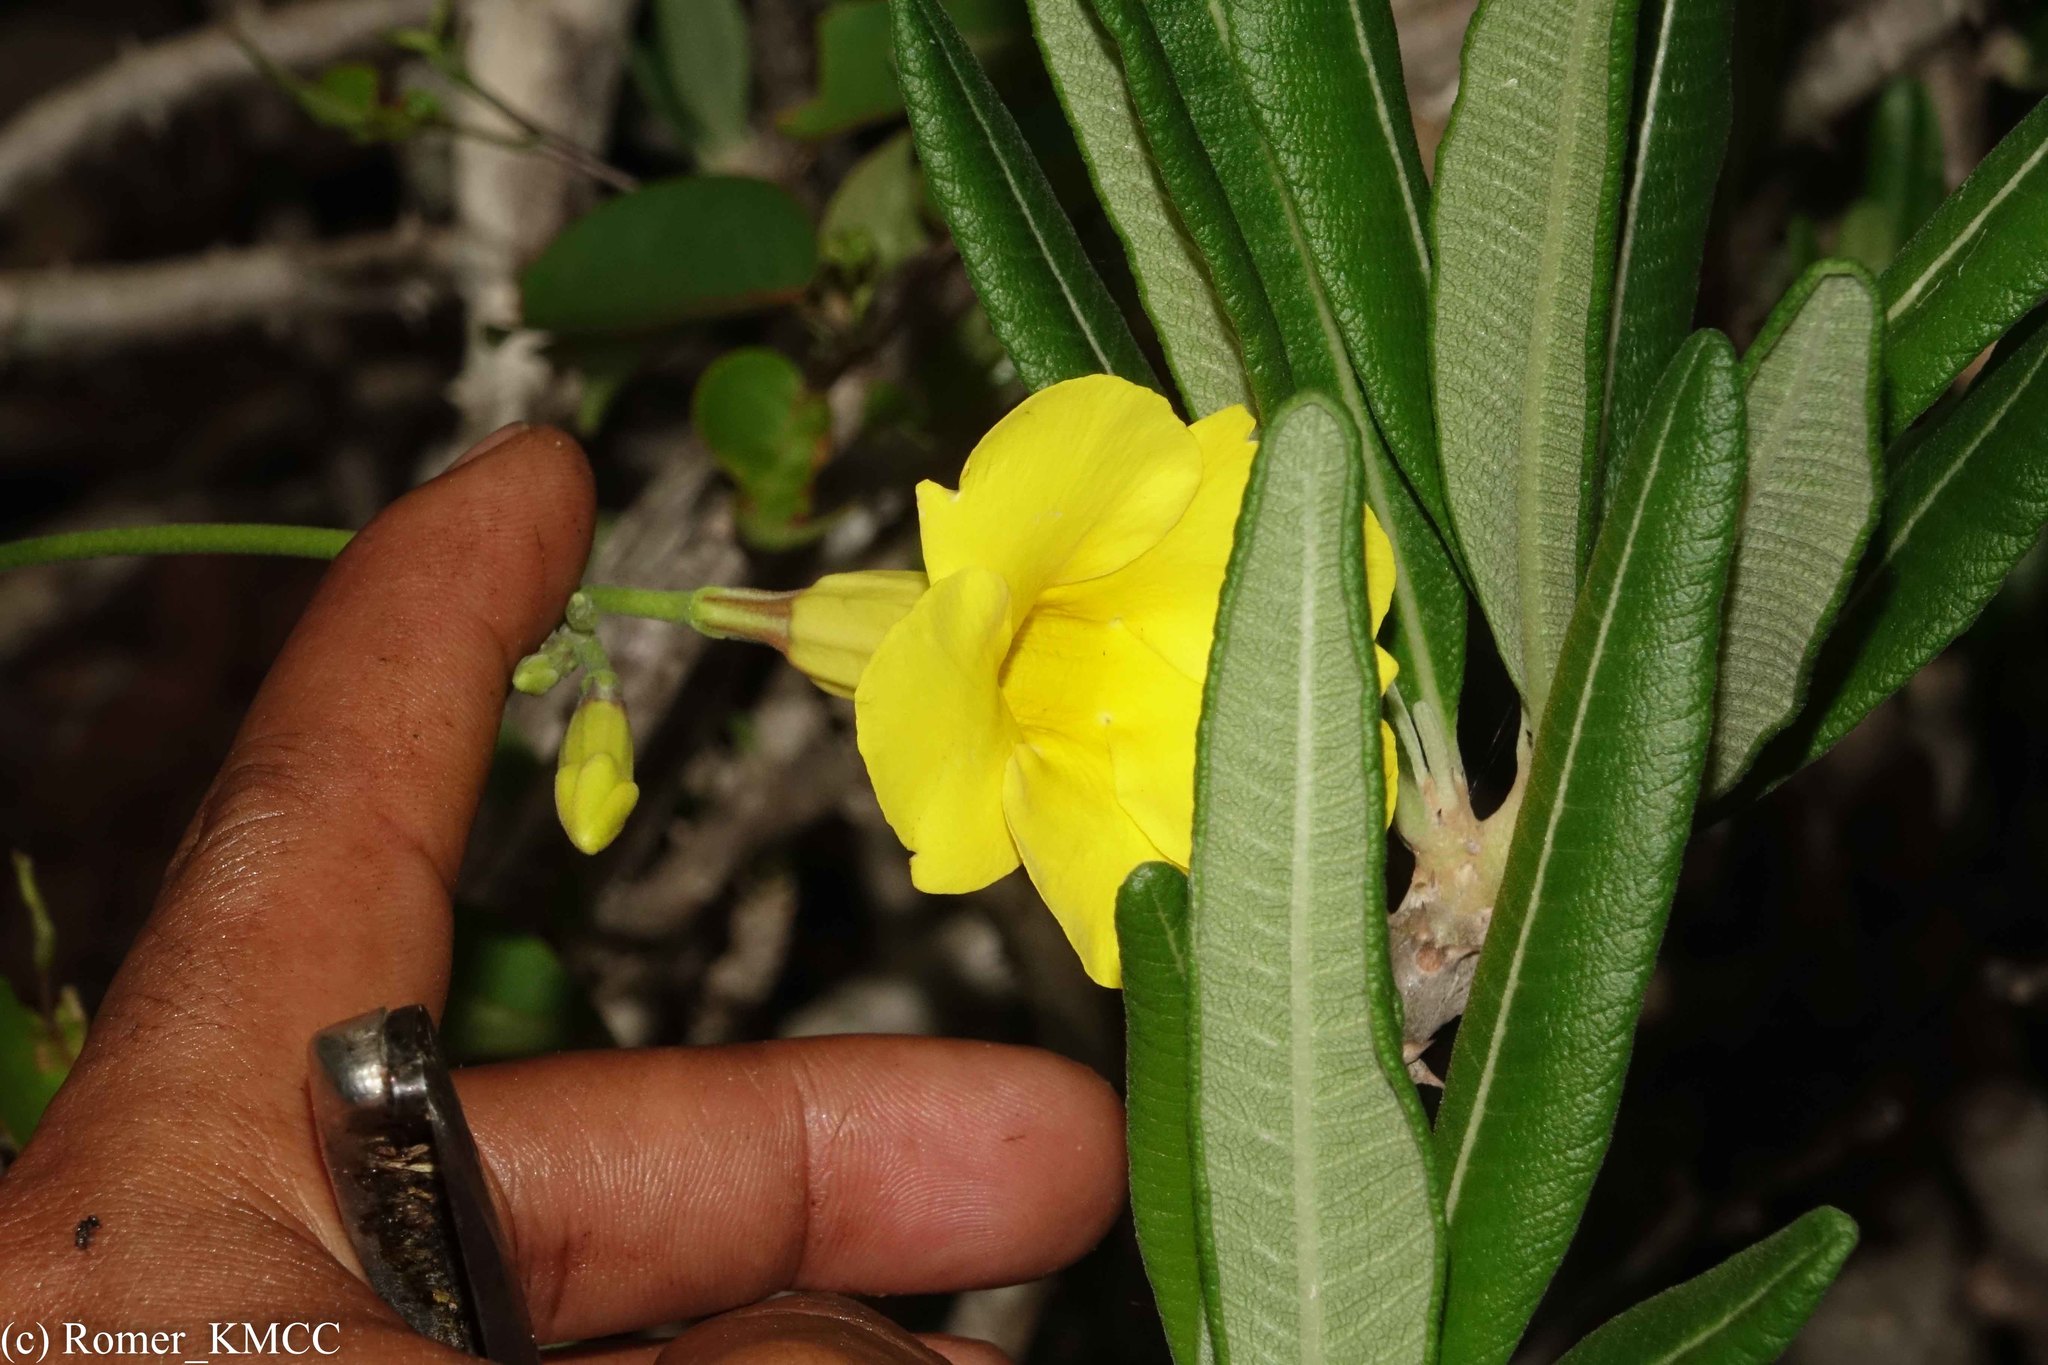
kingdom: Plantae
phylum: Tracheophyta
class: Magnoliopsida
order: Gentianales
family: Apocynaceae
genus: Pachypodium
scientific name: Pachypodium rosulatum
